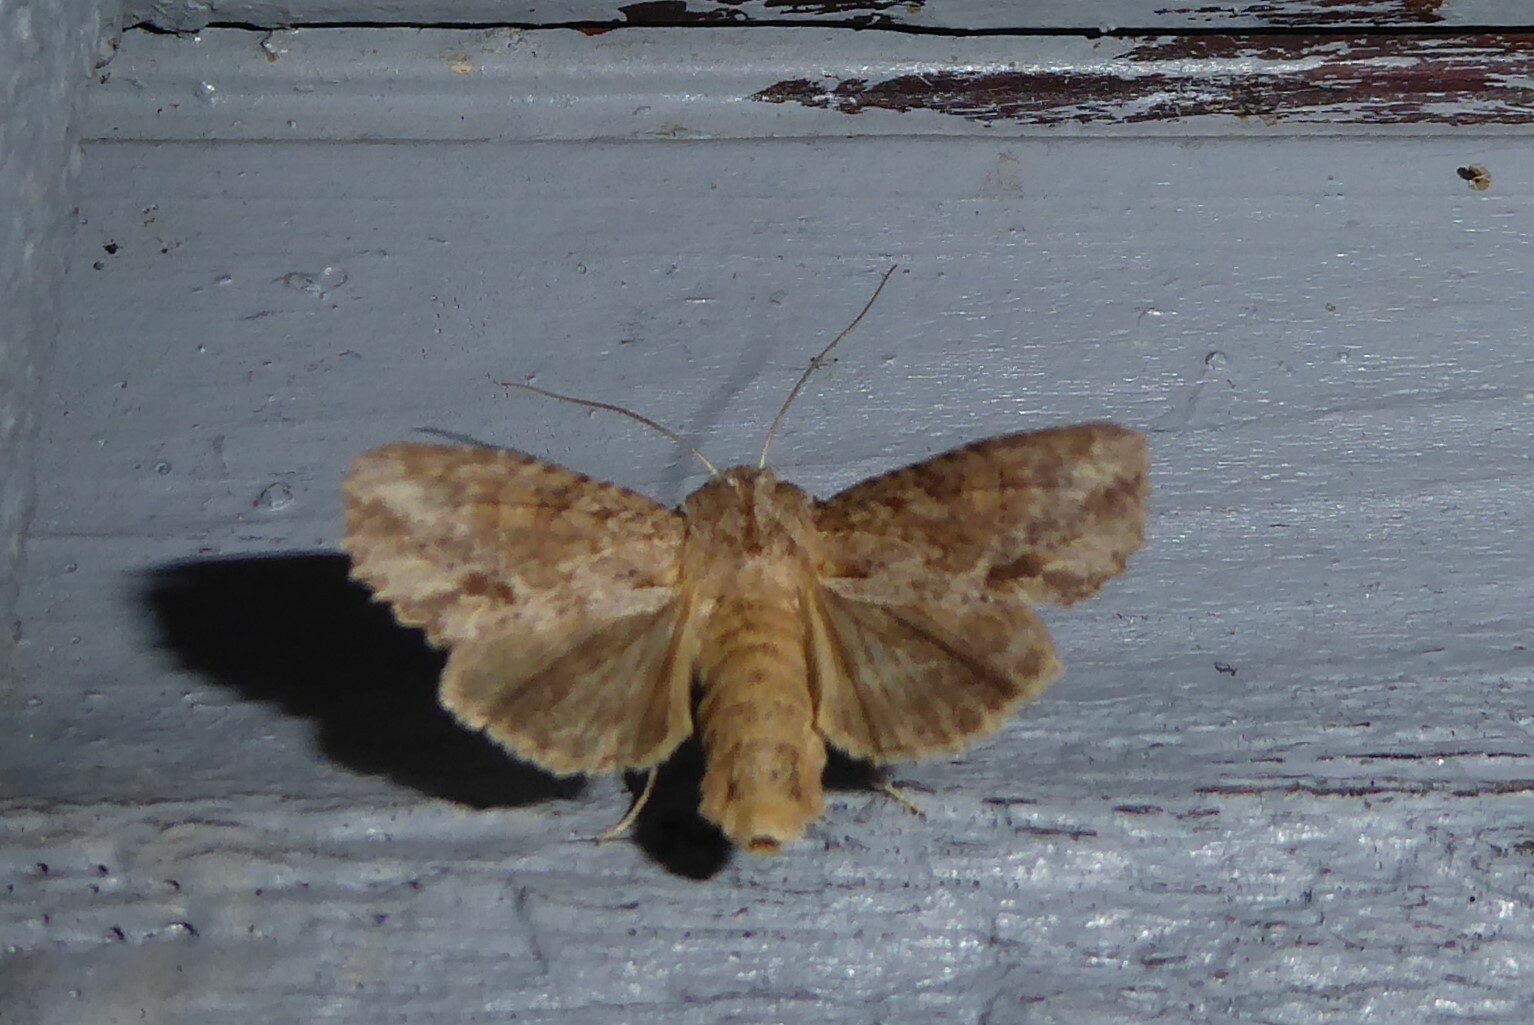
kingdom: Animalia
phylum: Arthropoda
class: Insecta
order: Lepidoptera
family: Noctuidae
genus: Ichneutica
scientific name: Ichneutica mollis
